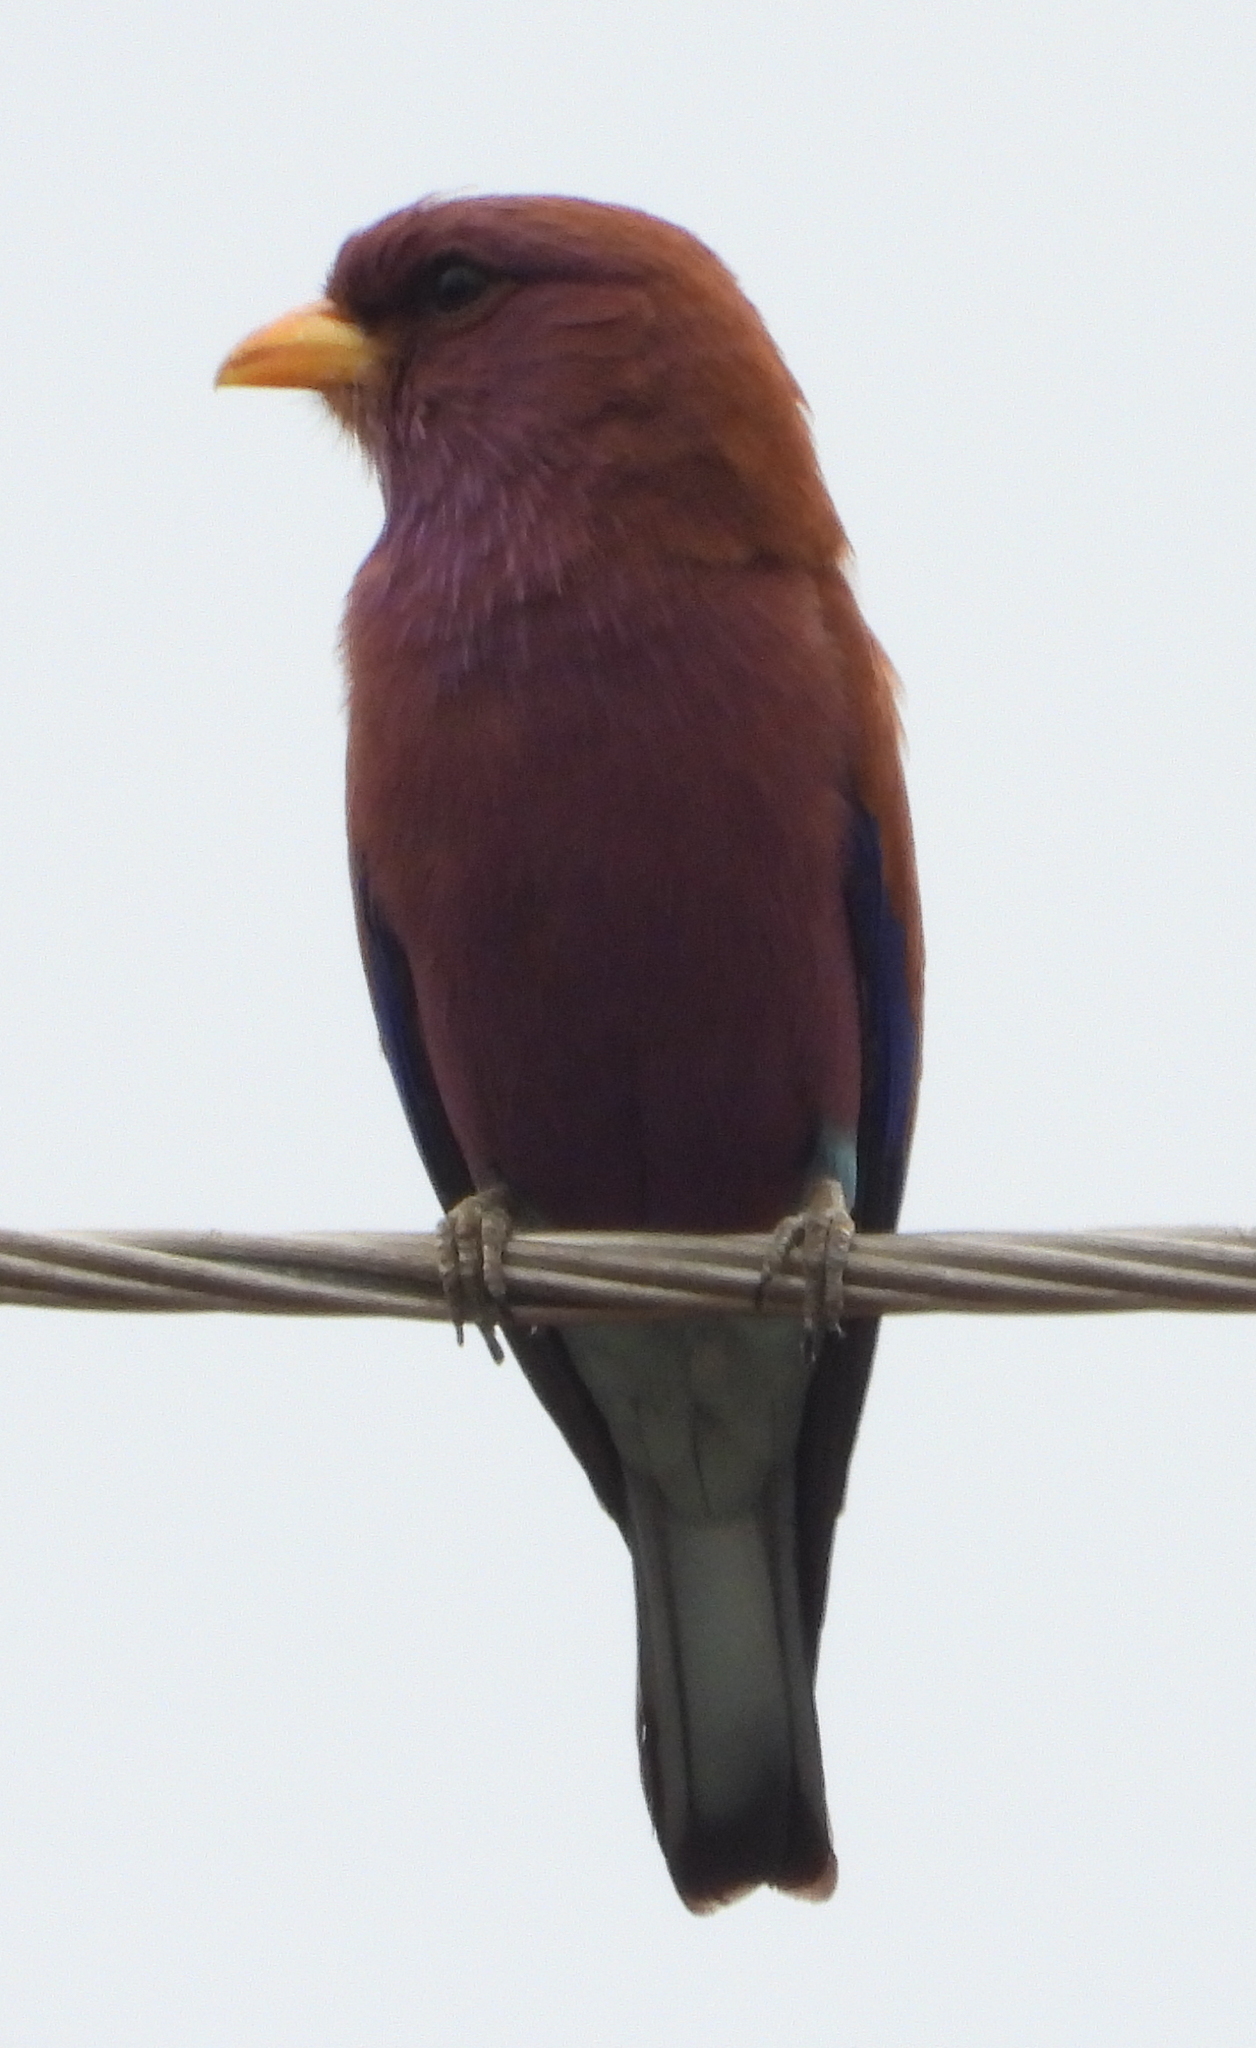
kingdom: Animalia
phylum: Chordata
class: Aves
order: Coraciiformes
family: Coraciidae
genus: Eurystomus
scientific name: Eurystomus glaucurus
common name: Broad-billed roller
